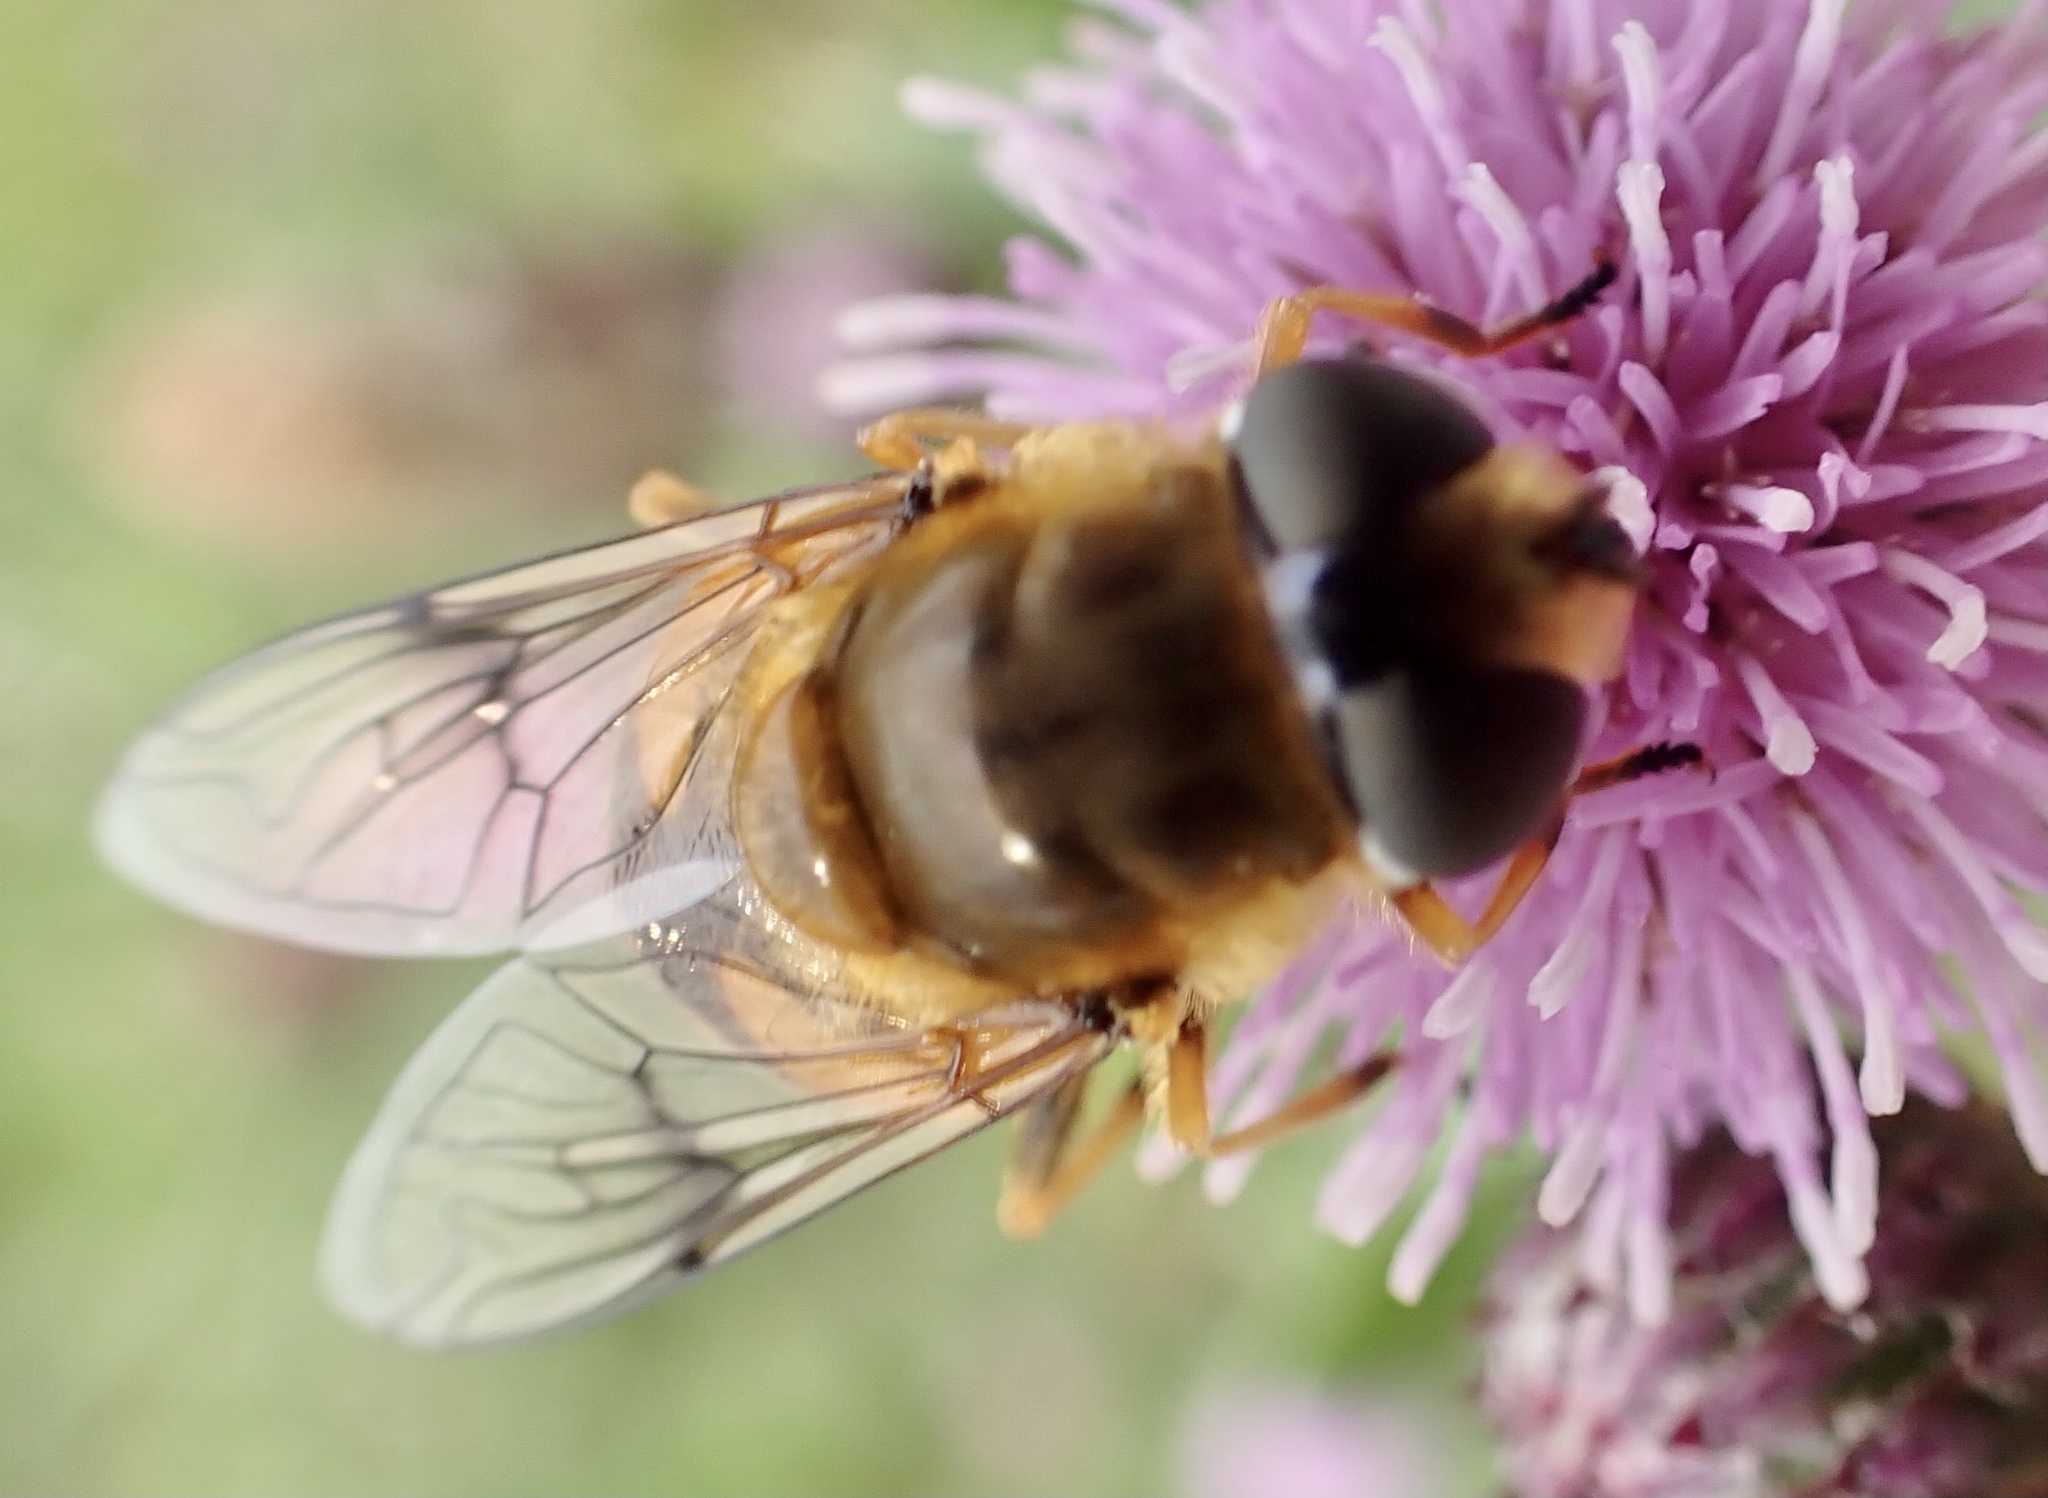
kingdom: Animalia
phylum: Arthropoda
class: Insecta
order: Diptera
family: Syrphidae
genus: Cheilosia
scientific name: Cheilosia morio
